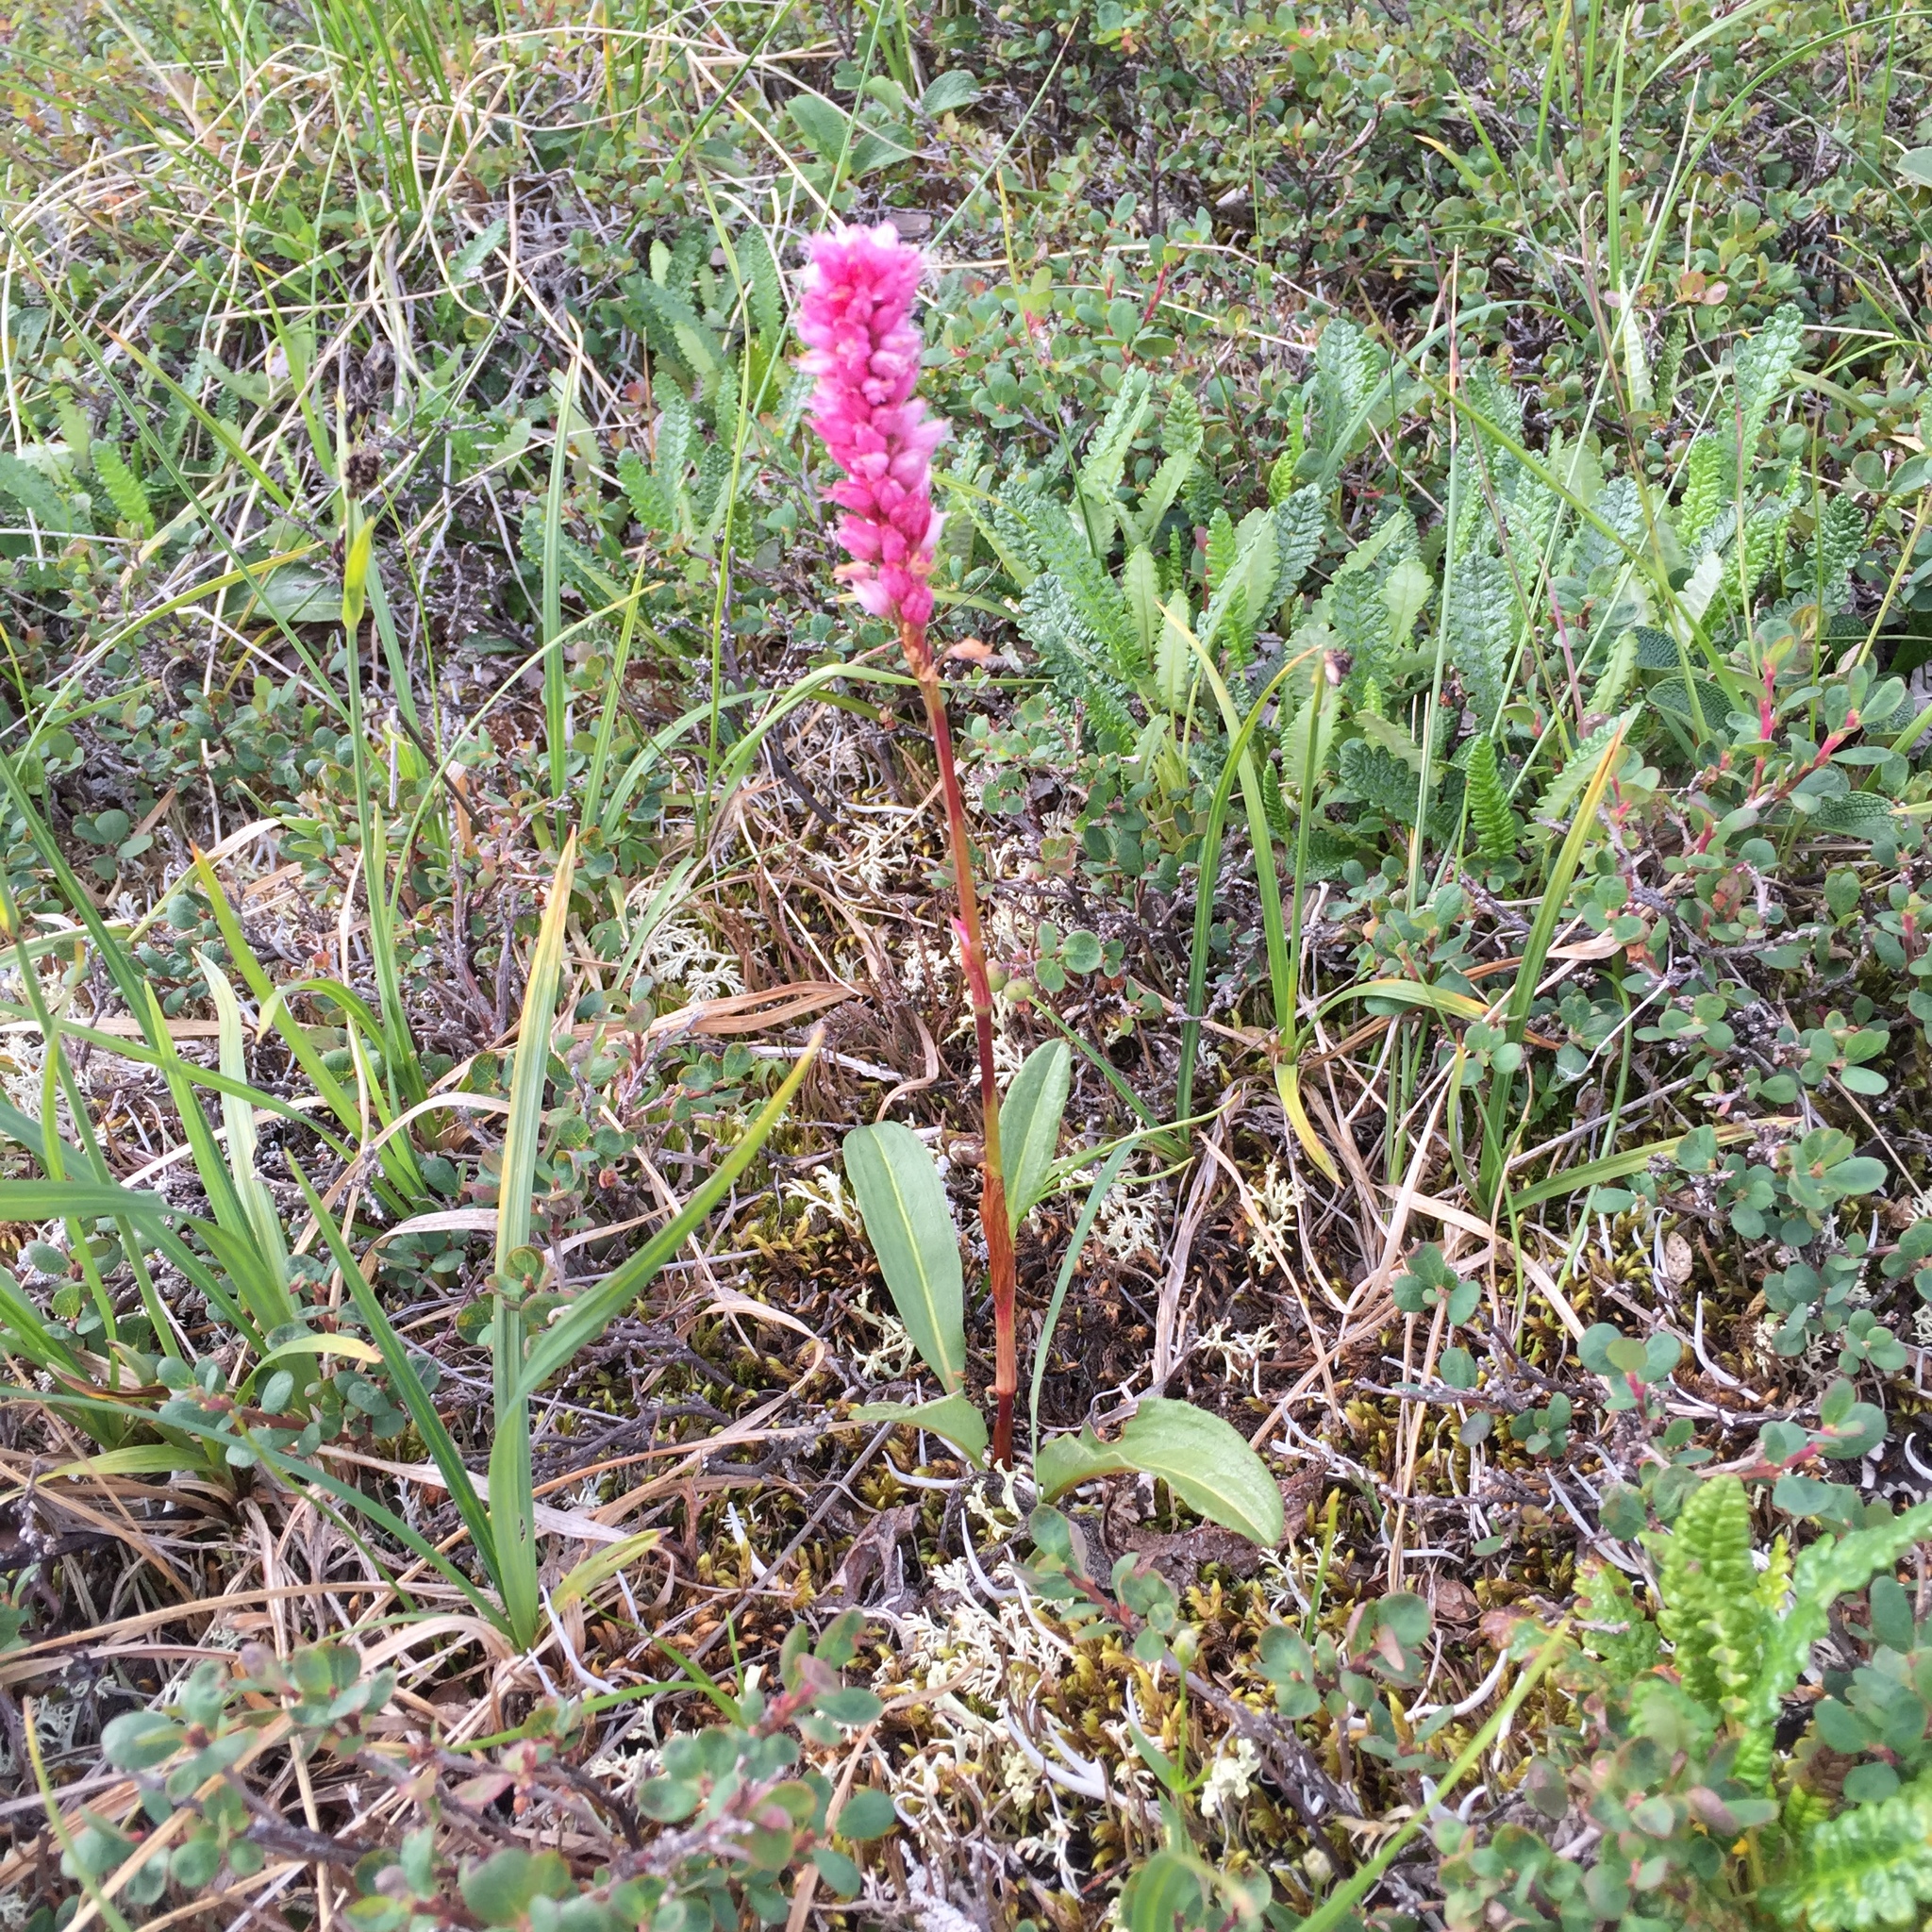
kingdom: Plantae
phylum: Tracheophyta
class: Magnoliopsida
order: Caryophyllales
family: Polygonaceae
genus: Bistorta
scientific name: Bistorta plumosa
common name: Meadow bistort
